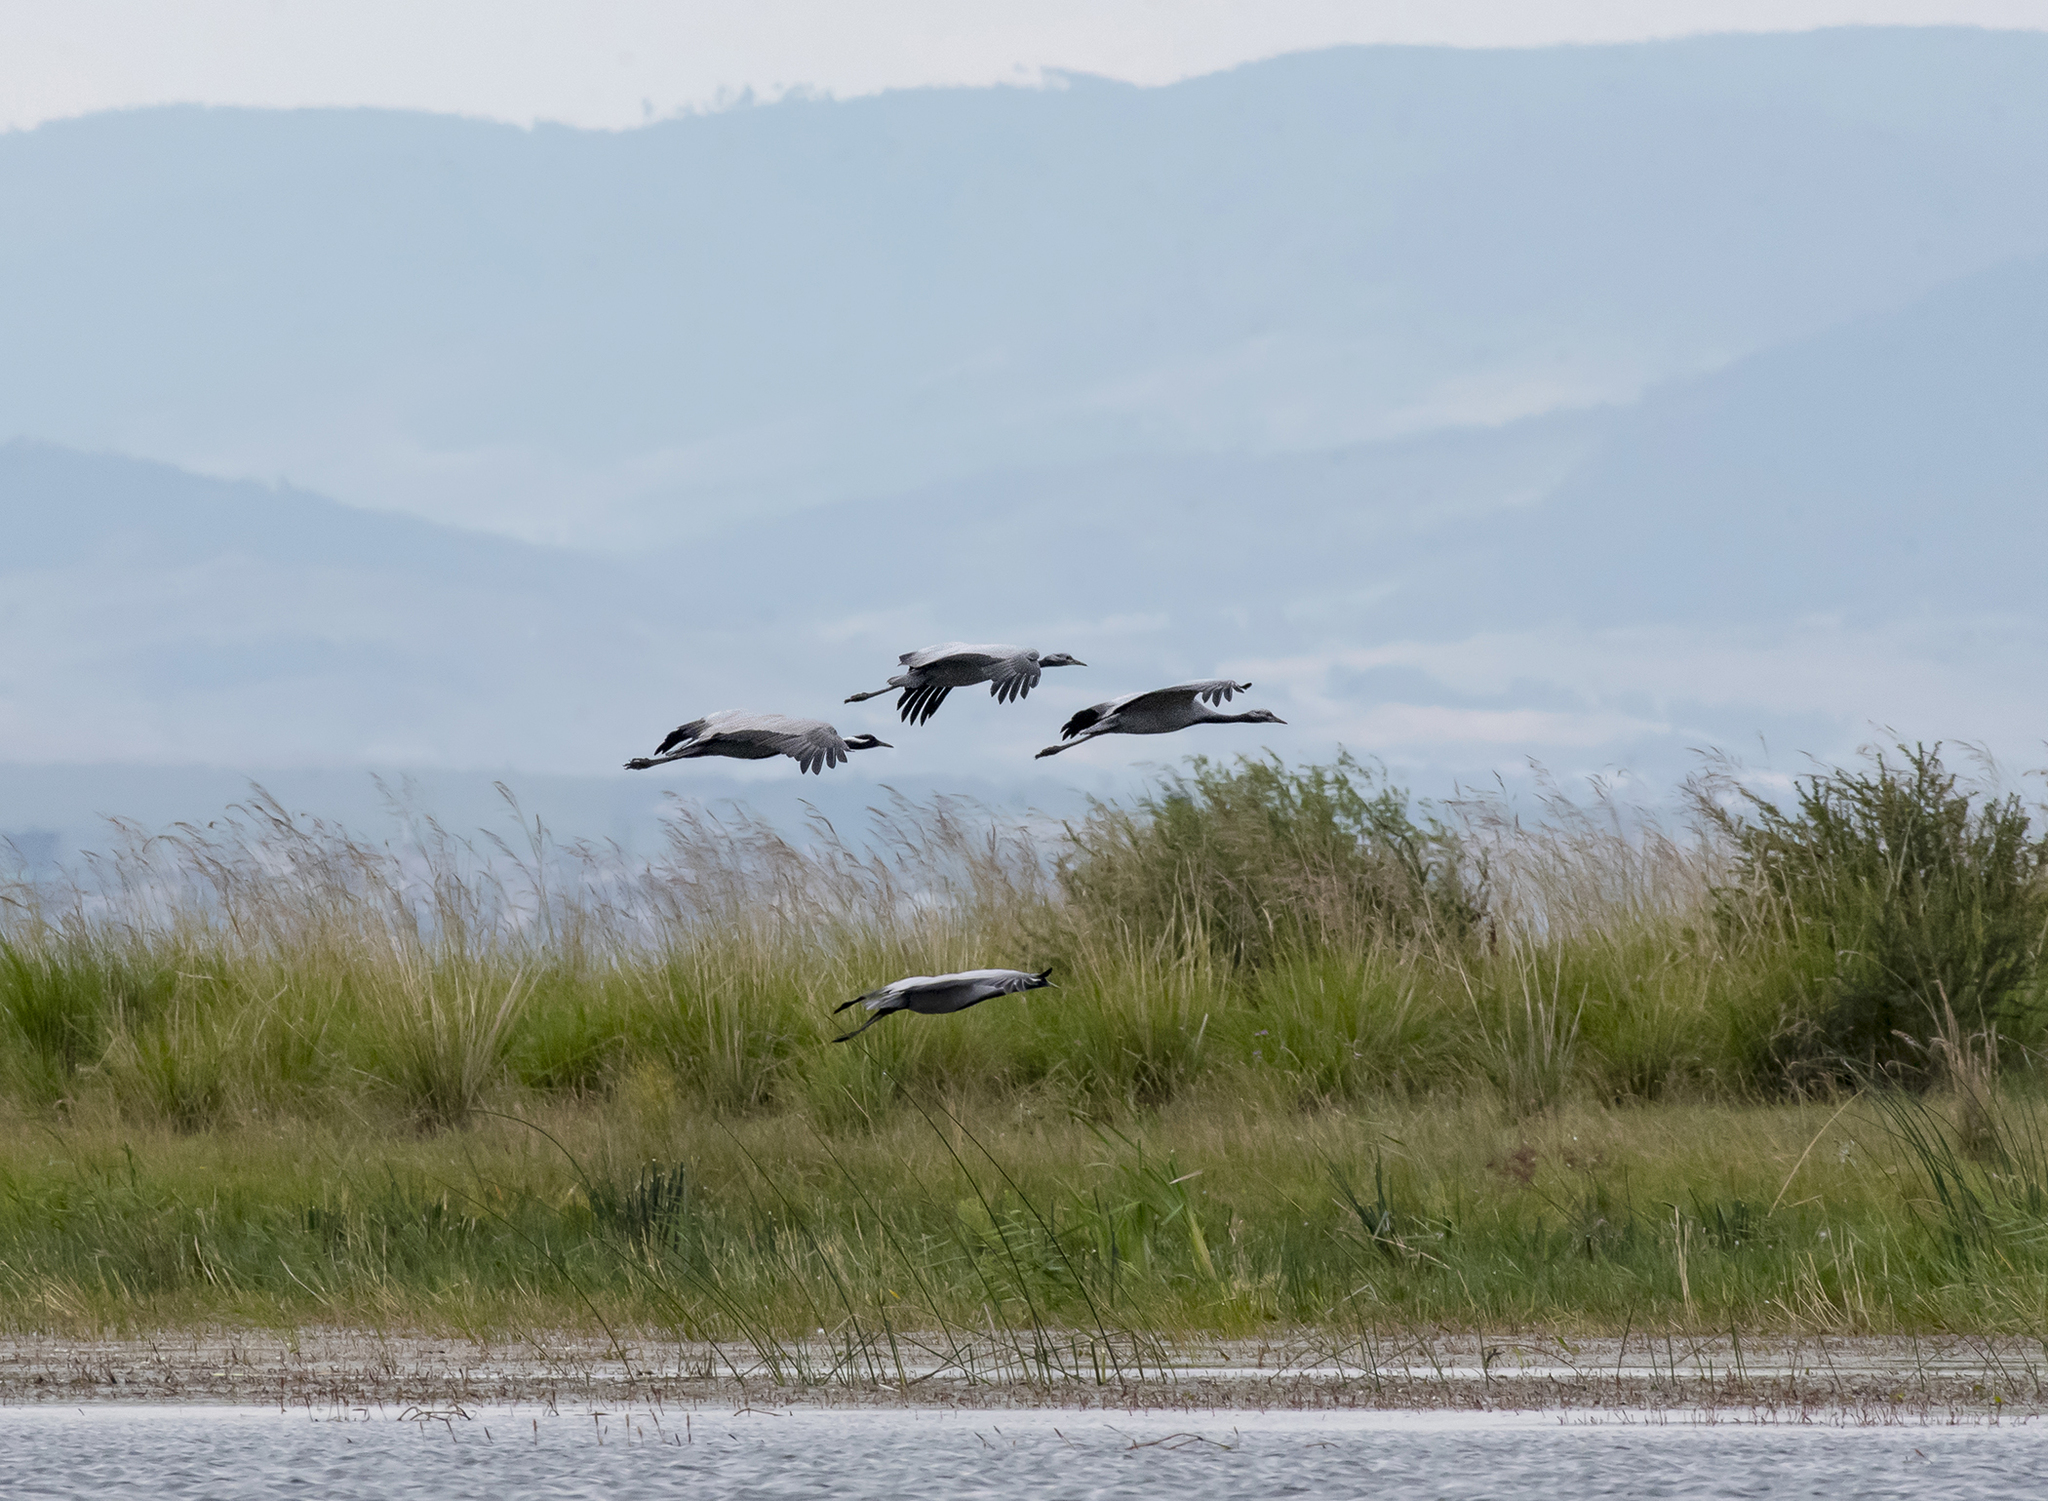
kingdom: Animalia
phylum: Chordata
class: Aves
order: Gruiformes
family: Gruidae
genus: Anthropoides
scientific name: Anthropoides virgo
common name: Demoiselle crane
